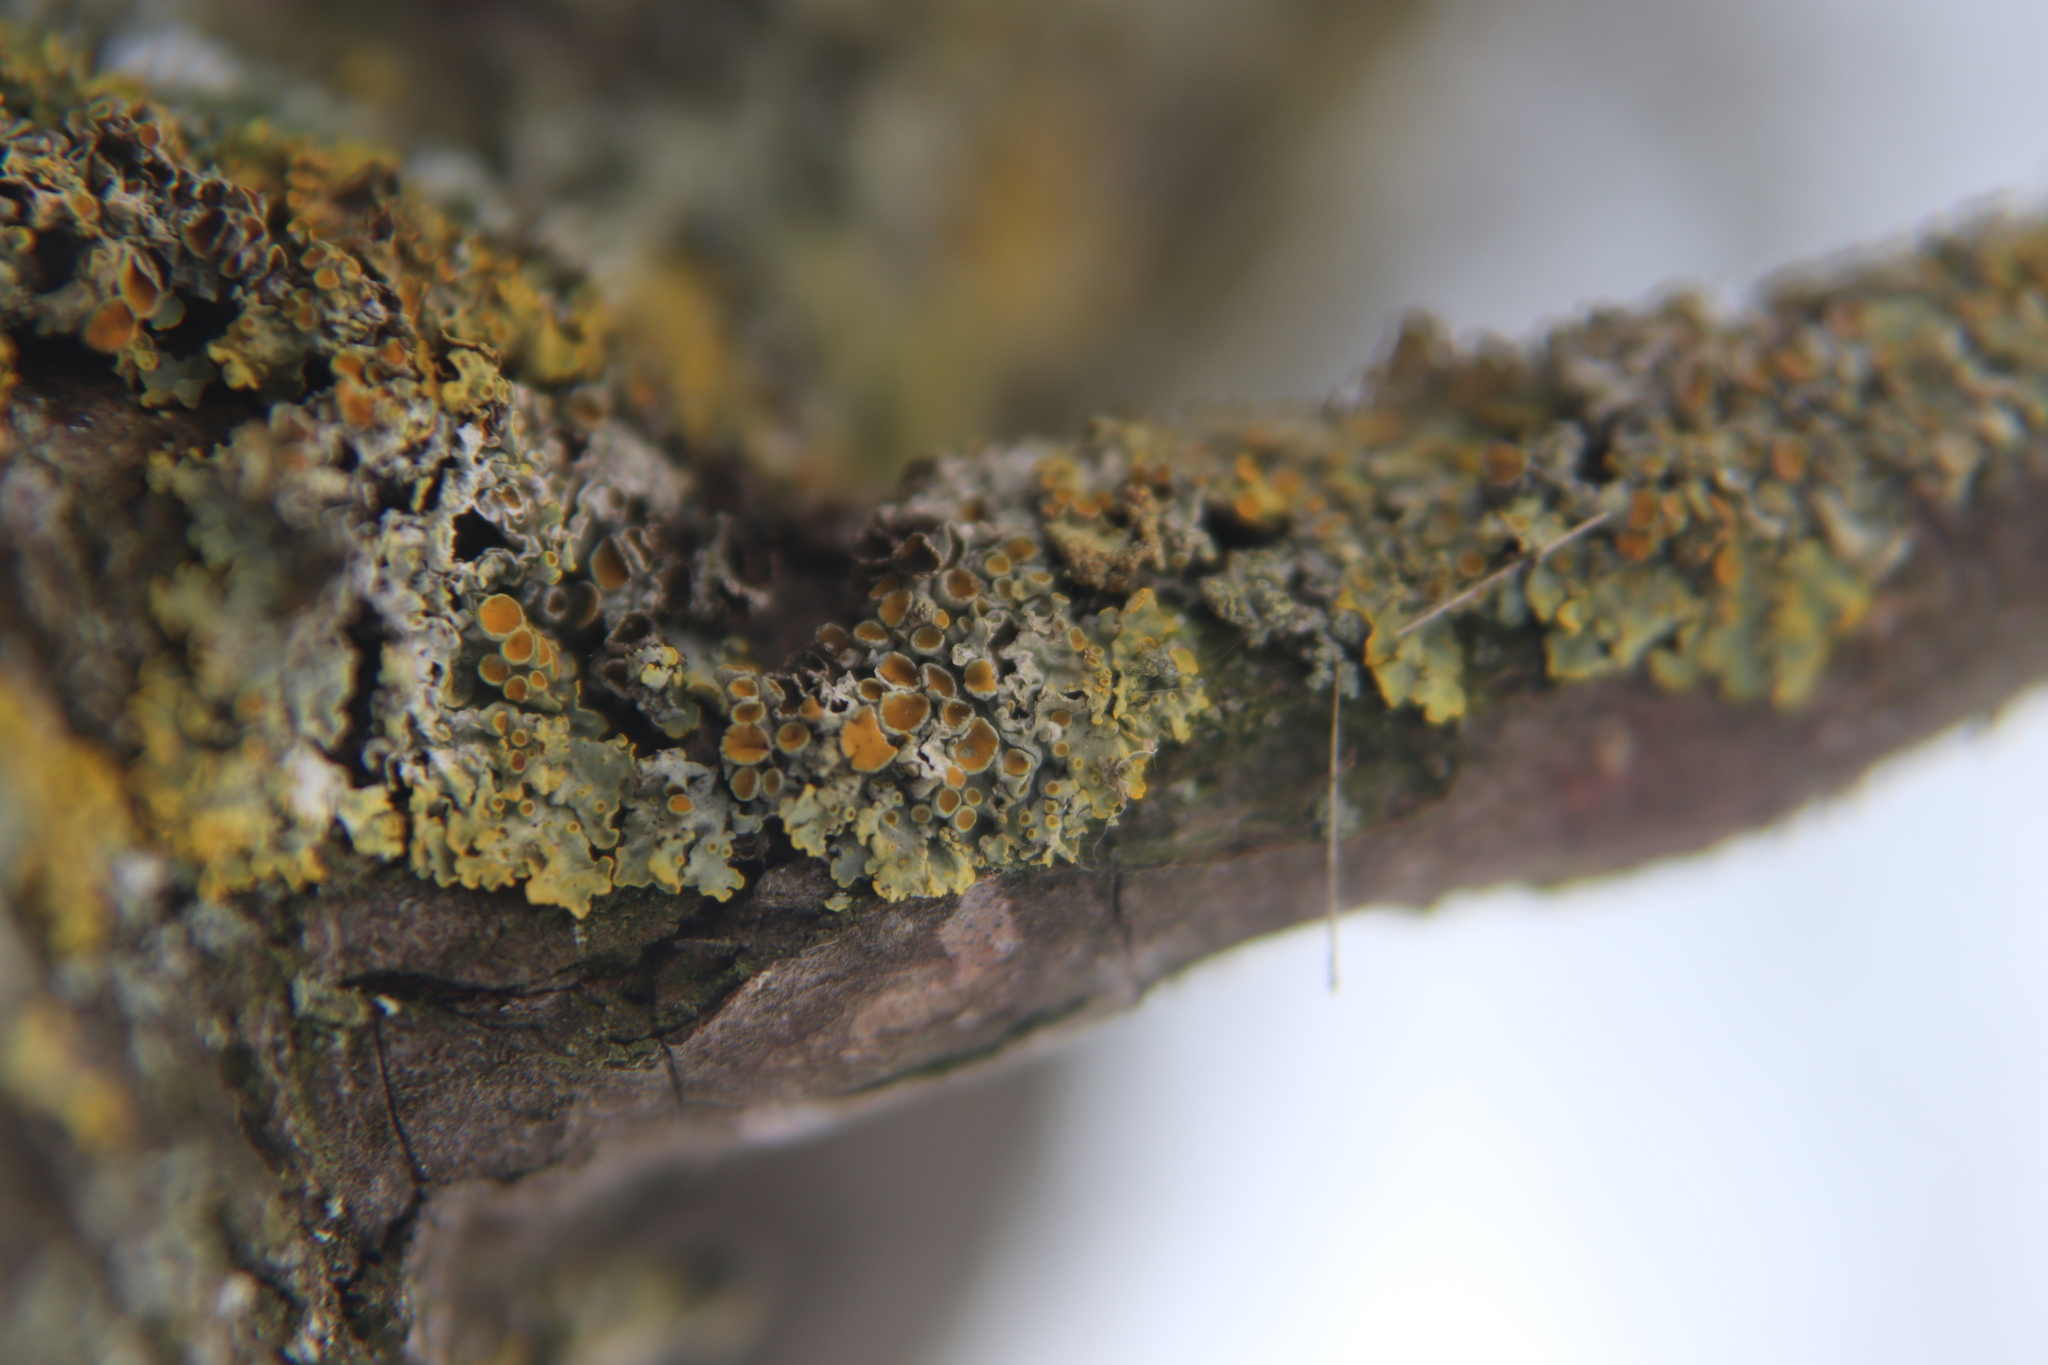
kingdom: Fungi
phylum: Ascomycota
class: Lecanoromycetes
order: Teloschistales
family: Teloschistaceae
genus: Xanthoria
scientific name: Xanthoria parietina
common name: Common orange lichen
